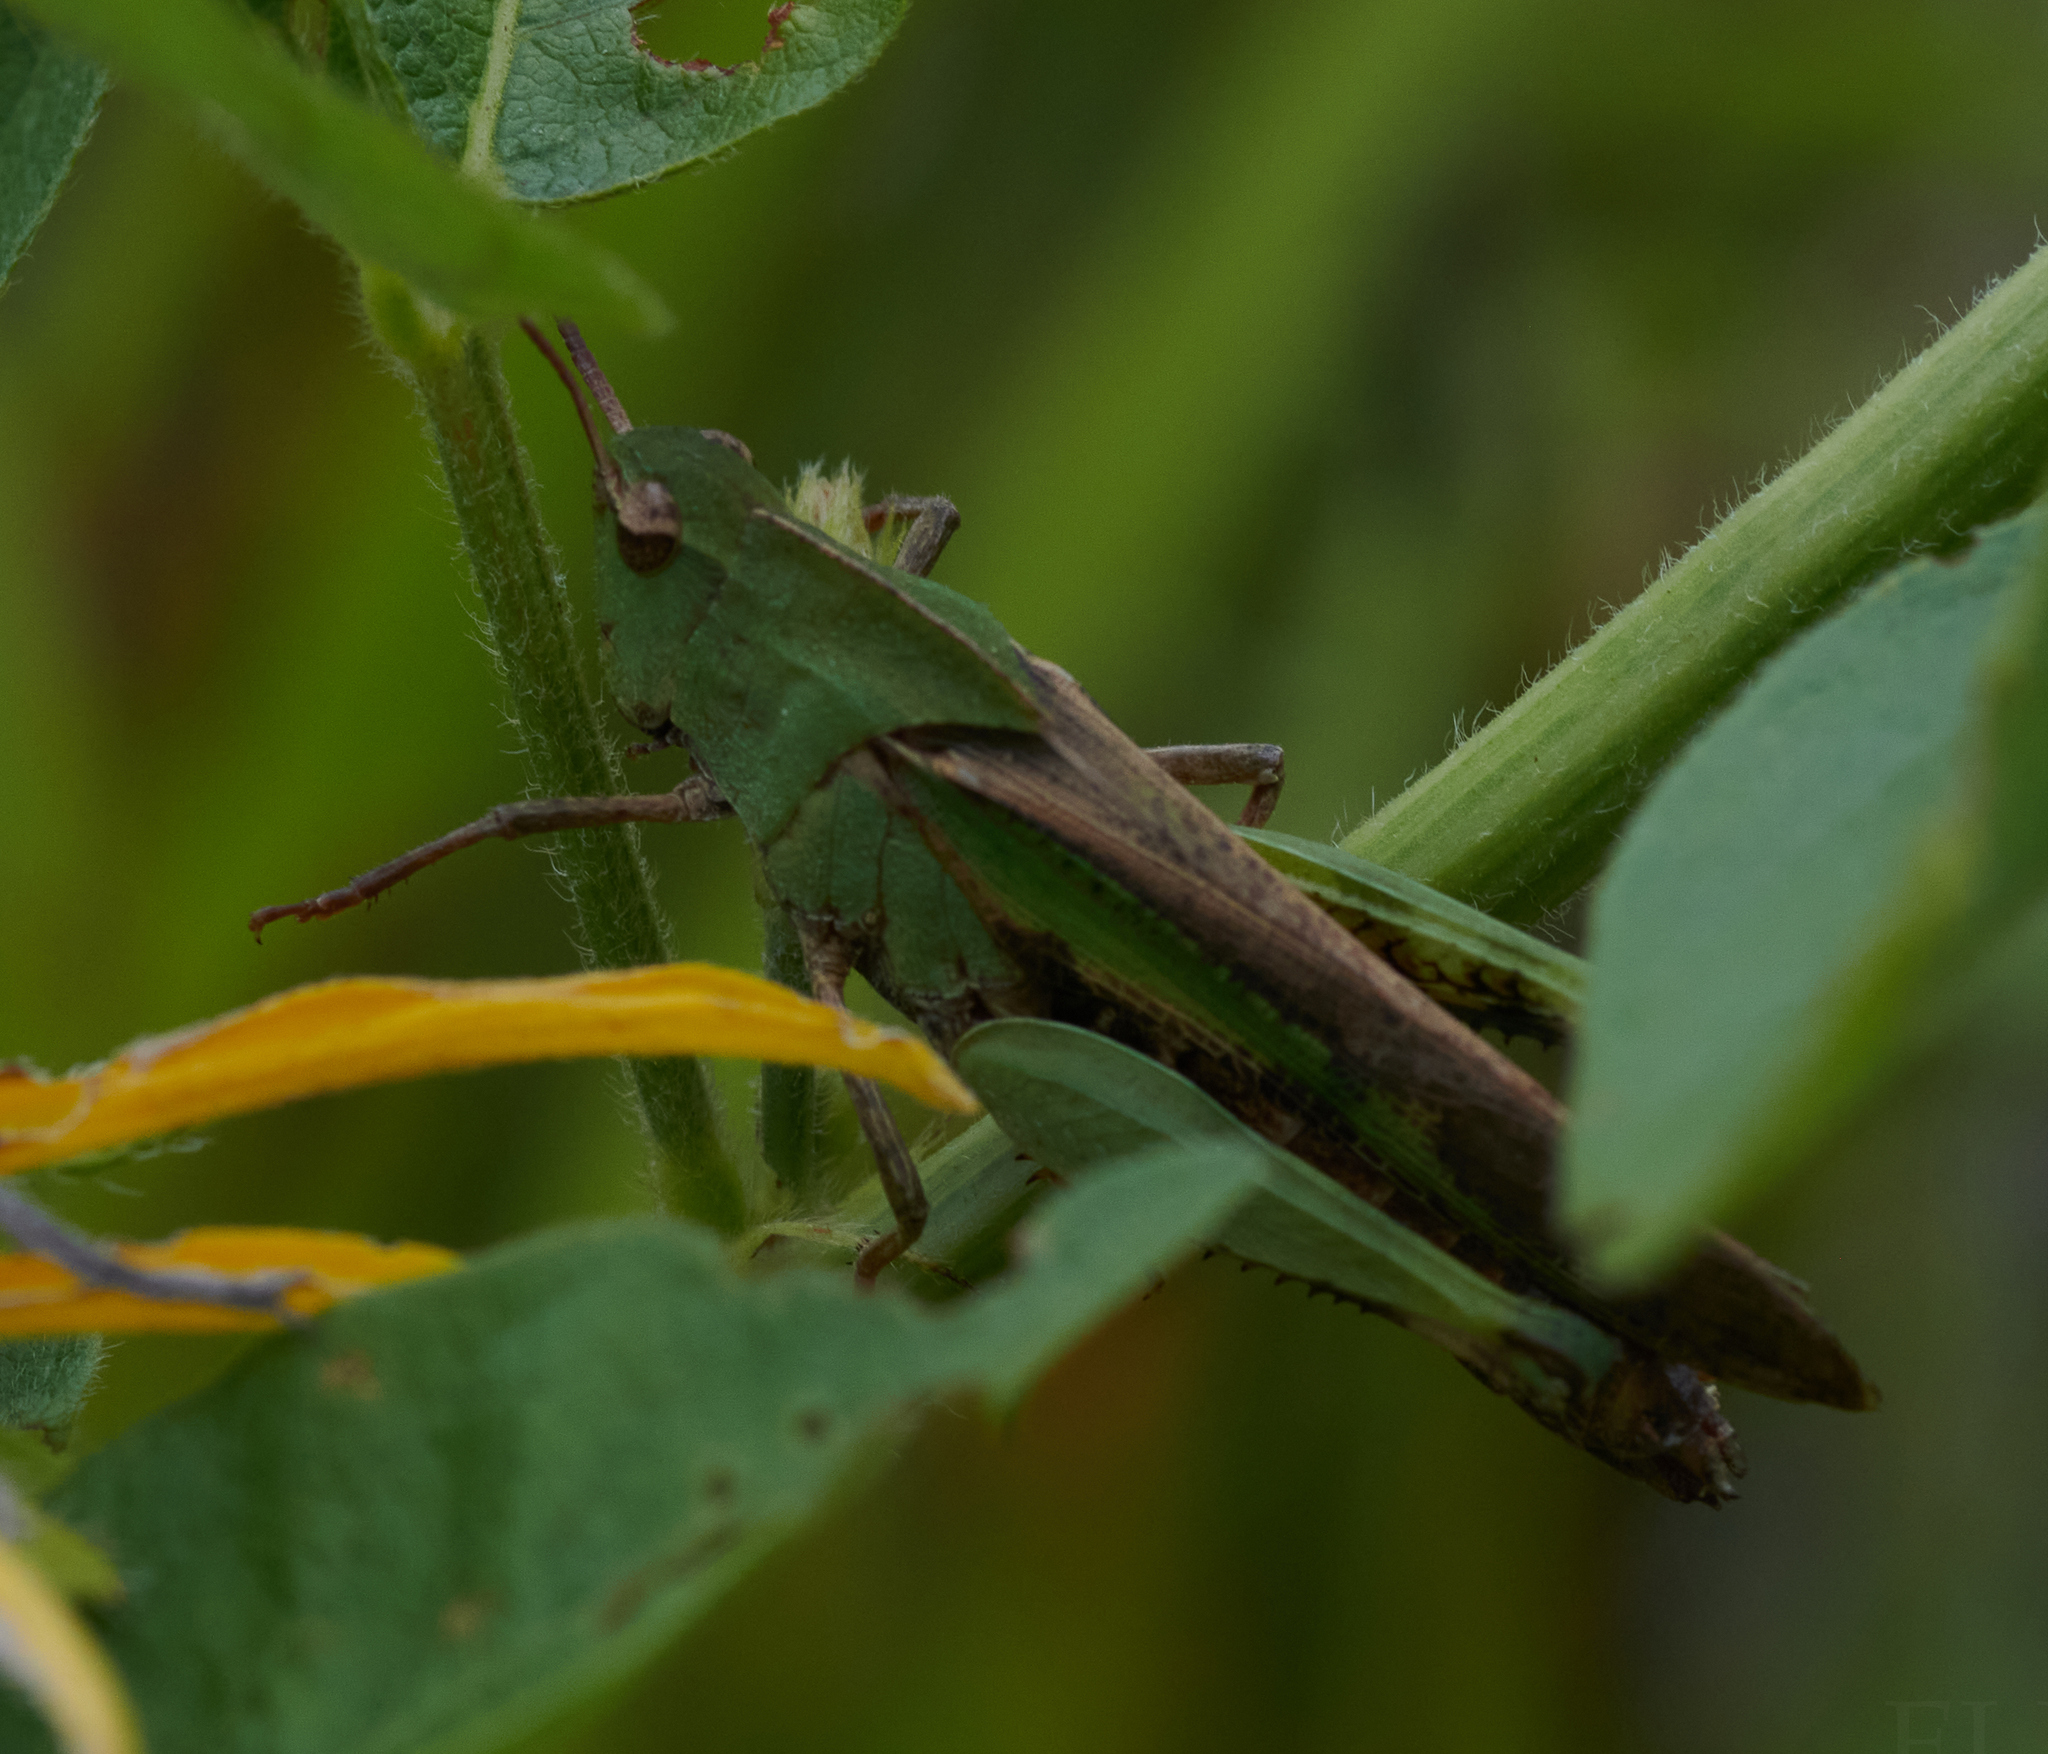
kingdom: Animalia
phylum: Arthropoda
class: Insecta
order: Orthoptera
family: Acrididae
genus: Chortophaga
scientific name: Chortophaga viridifasciata
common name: Green-striped grasshopper
